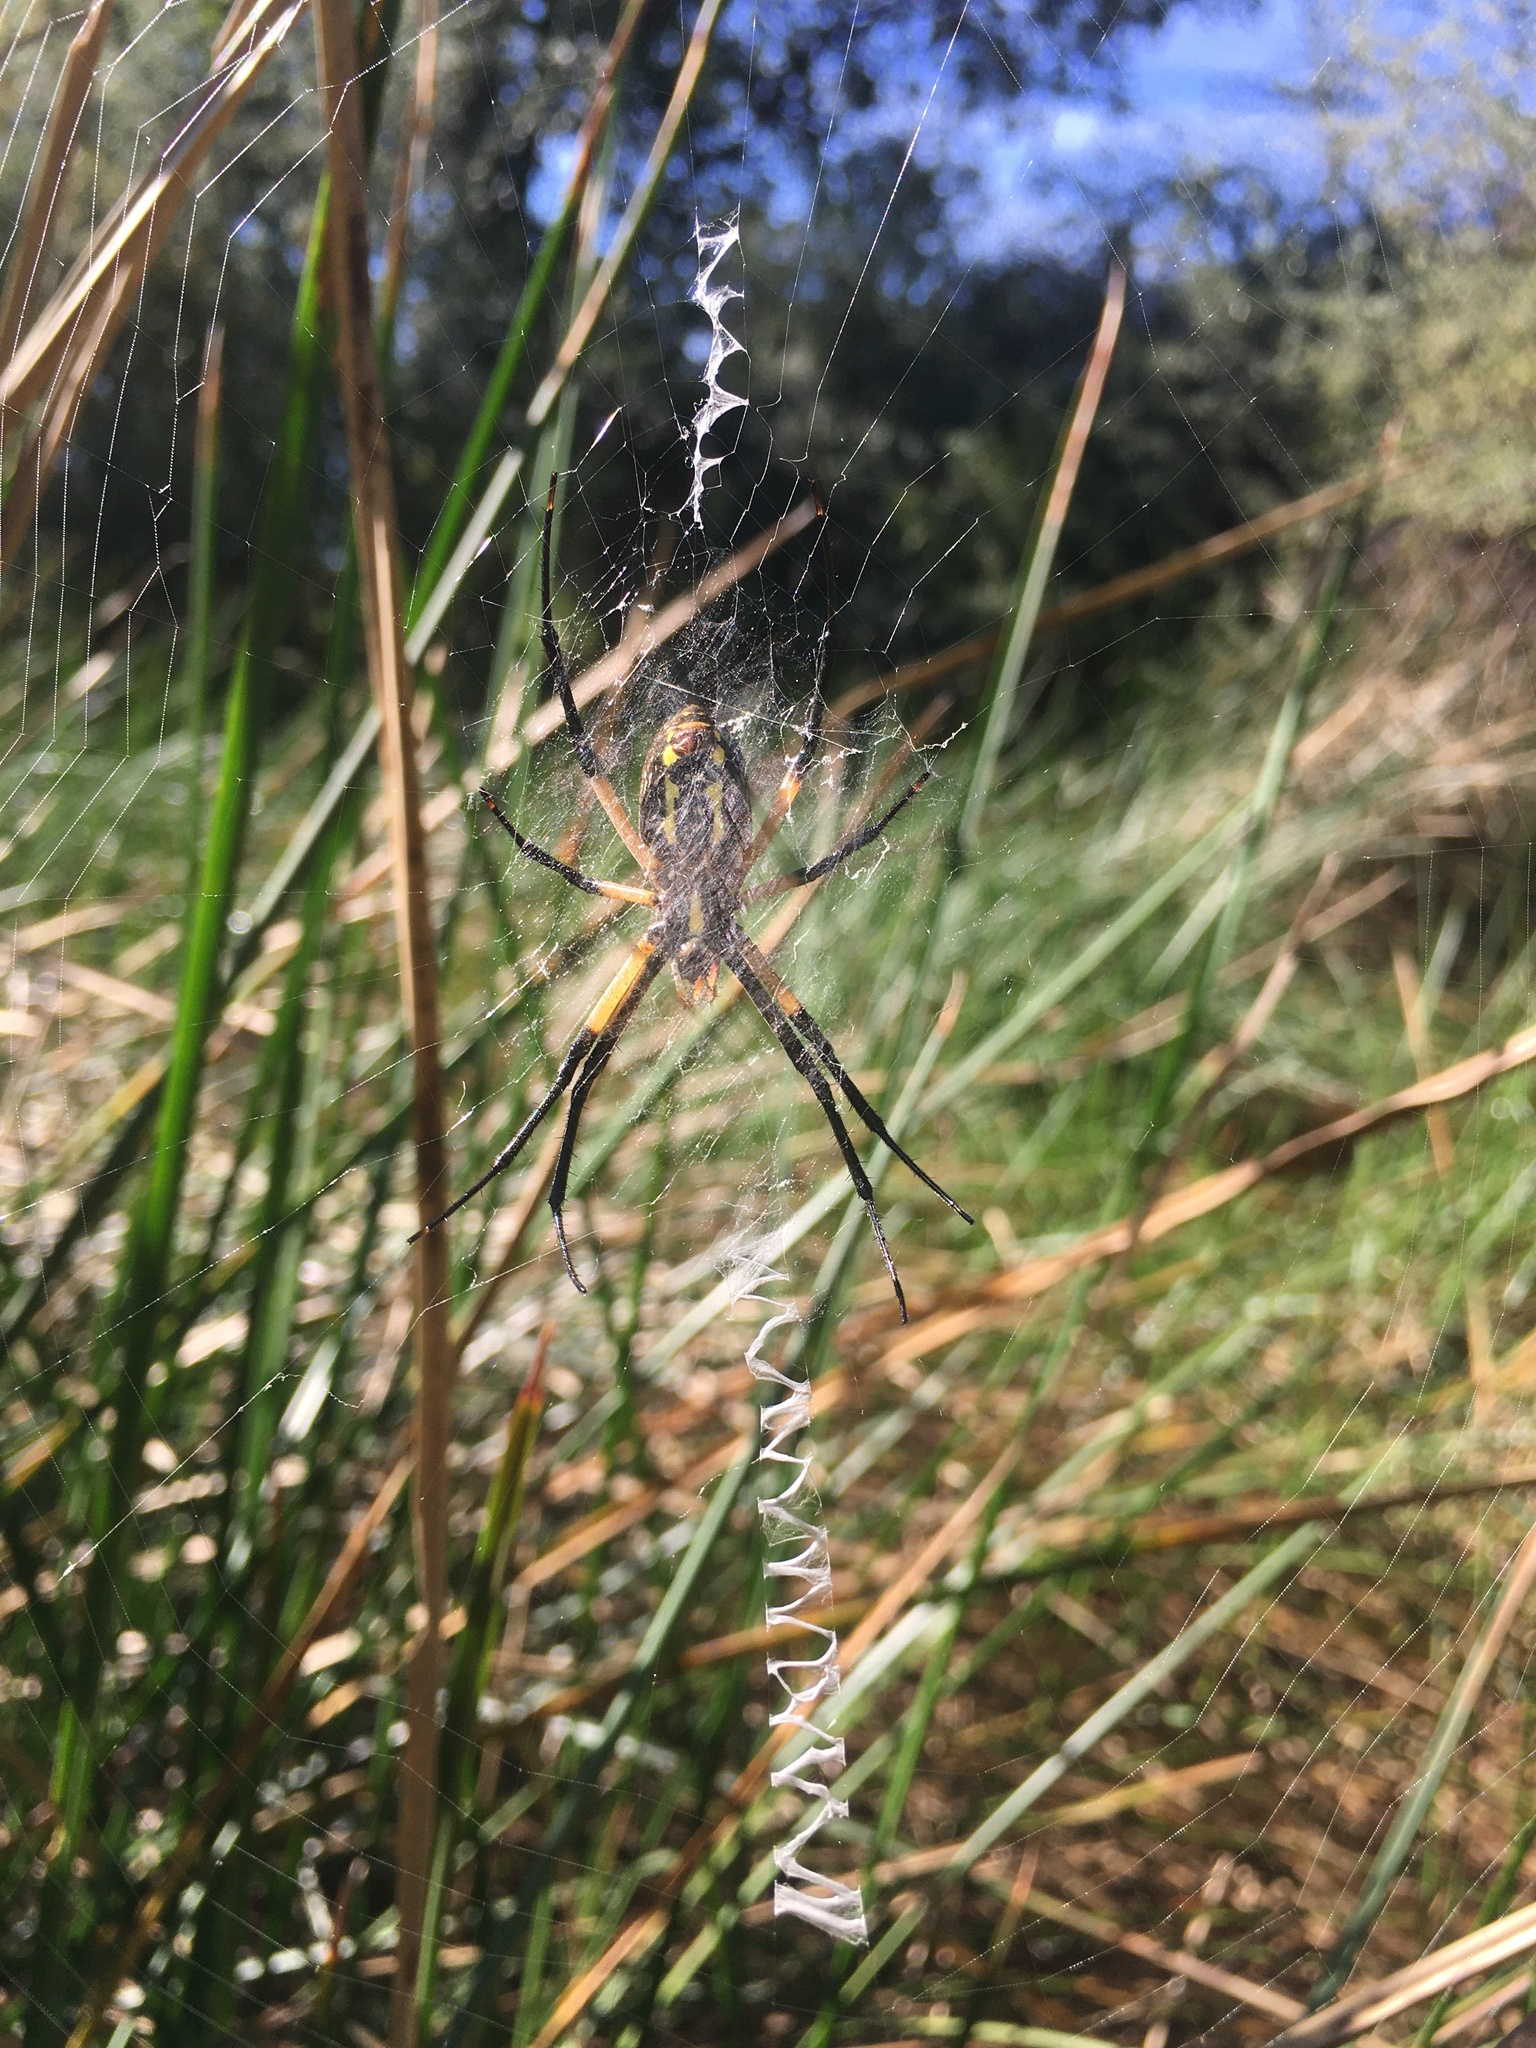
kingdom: Animalia
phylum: Arthropoda
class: Arachnida
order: Araneae
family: Araneidae
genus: Argiope
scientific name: Argiope aurantia
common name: Orb weavers
